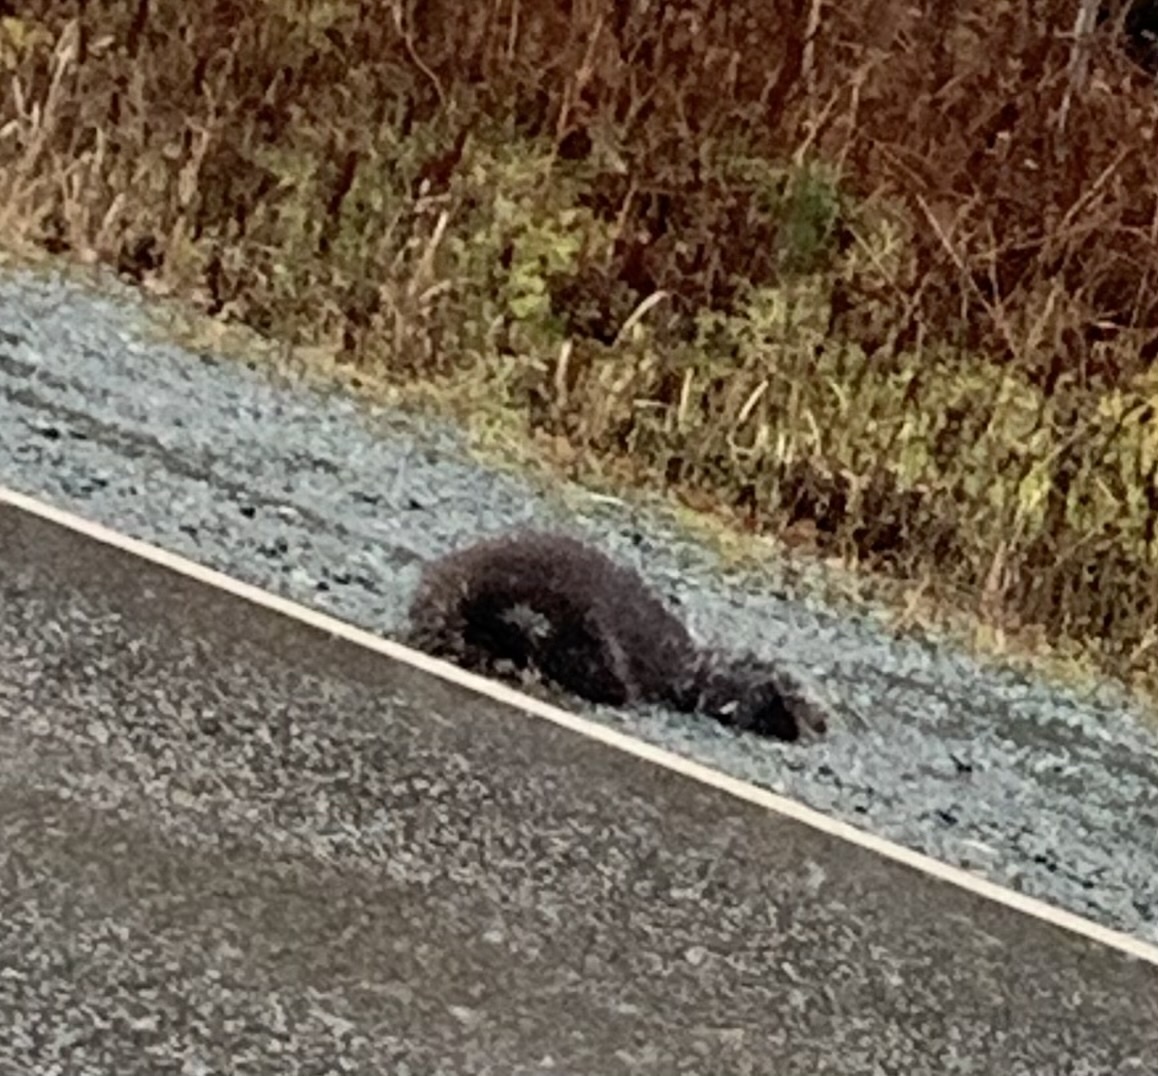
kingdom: Animalia
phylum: Chordata
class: Mammalia
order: Rodentia
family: Erethizontidae
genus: Erethizon
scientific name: Erethizon dorsatus
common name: North american porcupine
